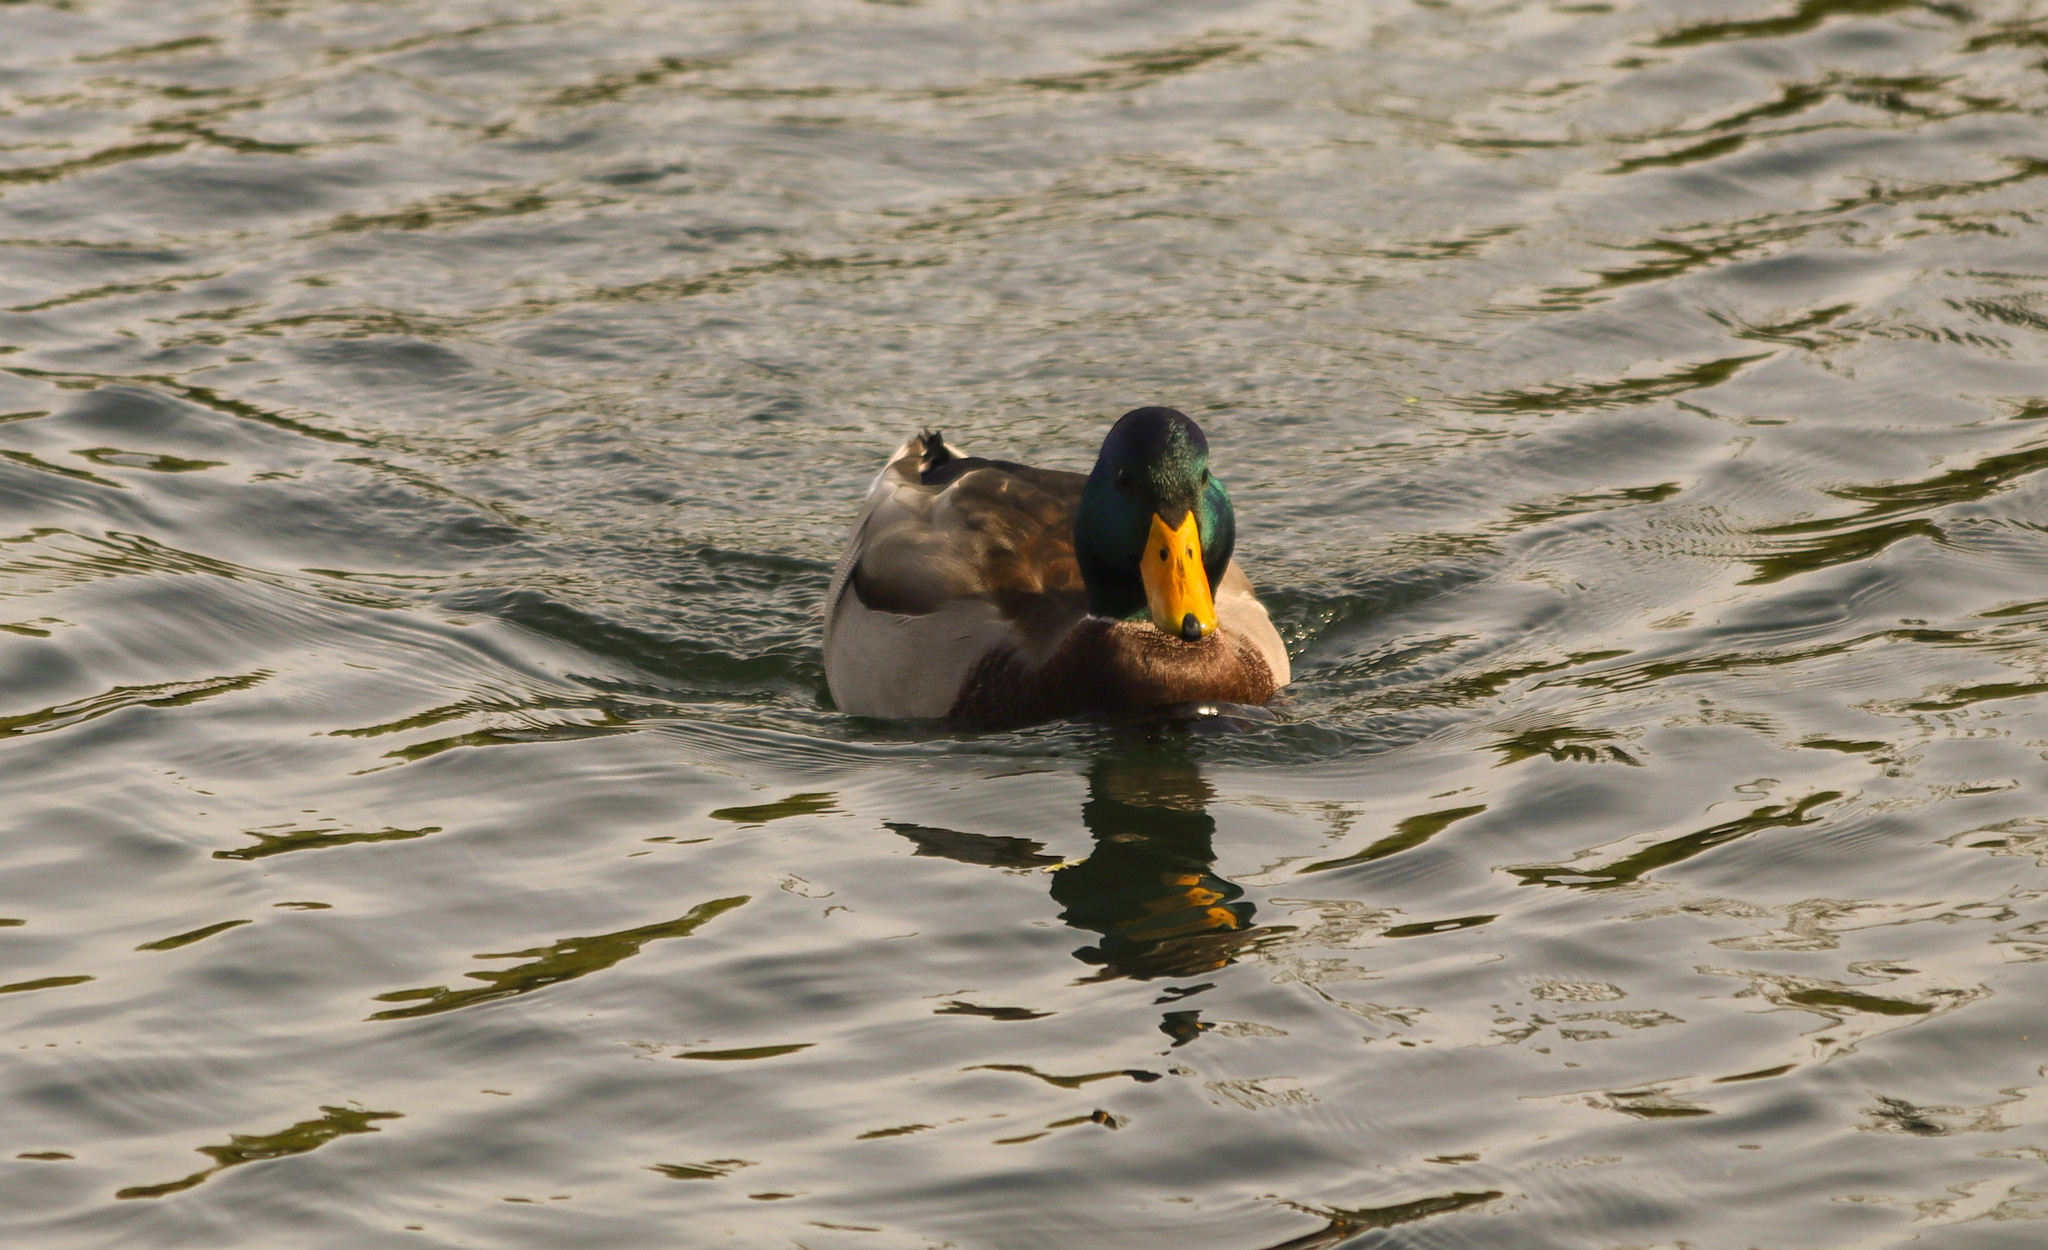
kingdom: Animalia
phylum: Chordata
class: Aves
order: Anseriformes
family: Anatidae
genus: Anas
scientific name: Anas platyrhynchos
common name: Mallard
